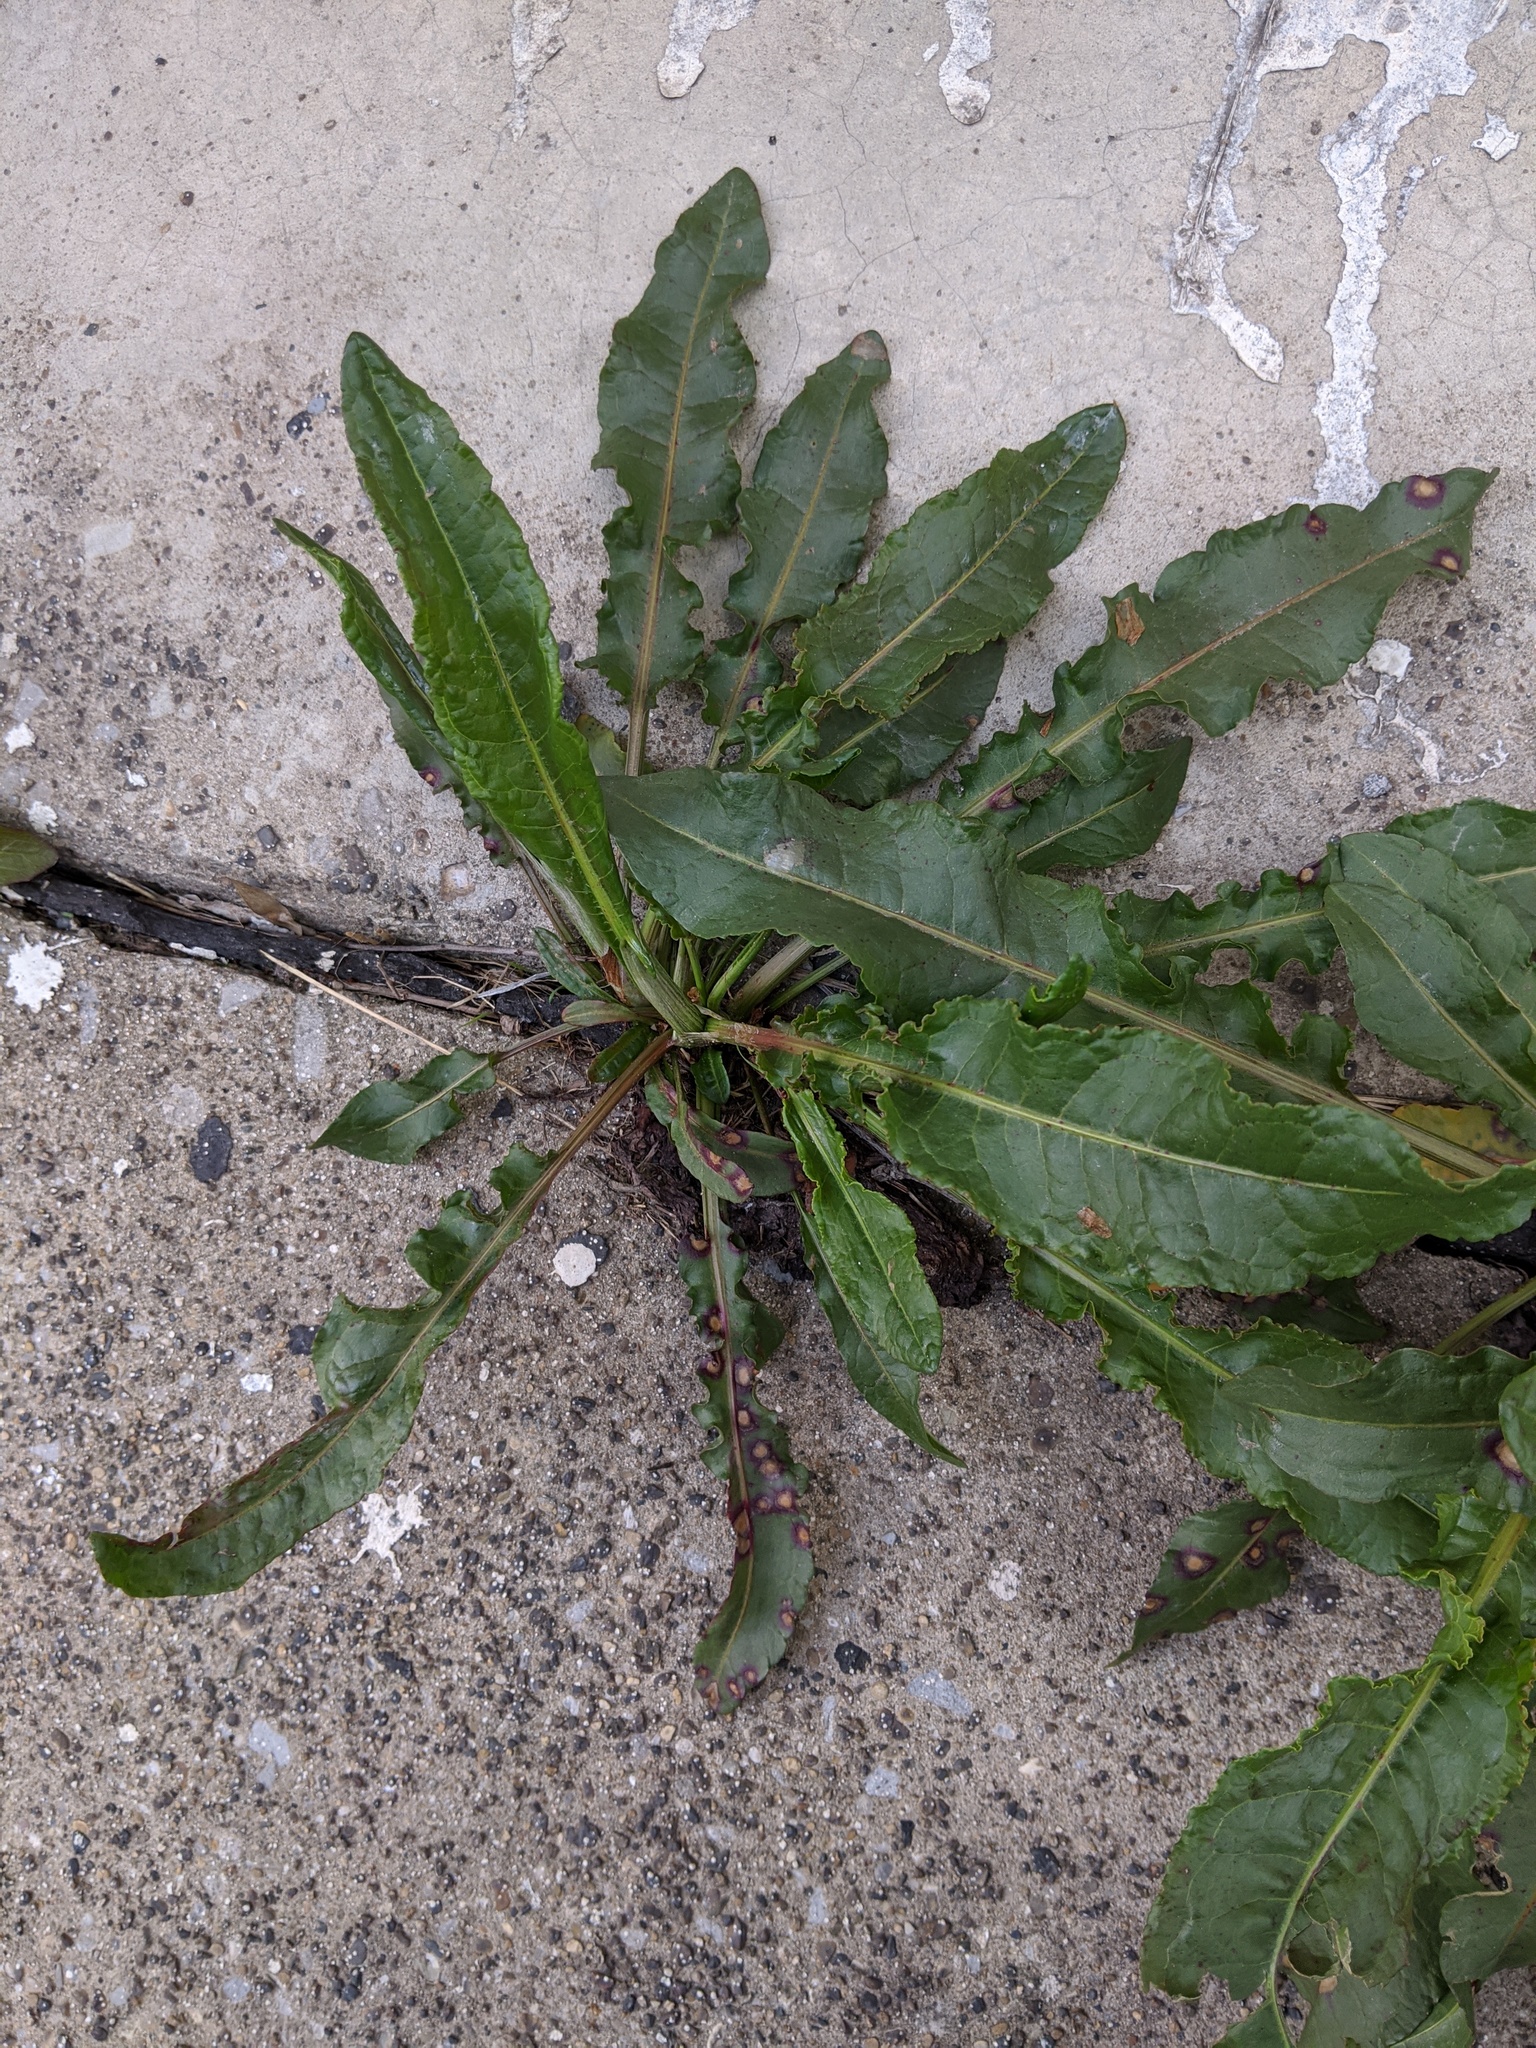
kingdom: Plantae
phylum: Tracheophyta
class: Magnoliopsida
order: Caryophyllales
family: Polygonaceae
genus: Rumex
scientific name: Rumex crispus
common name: Curled dock
